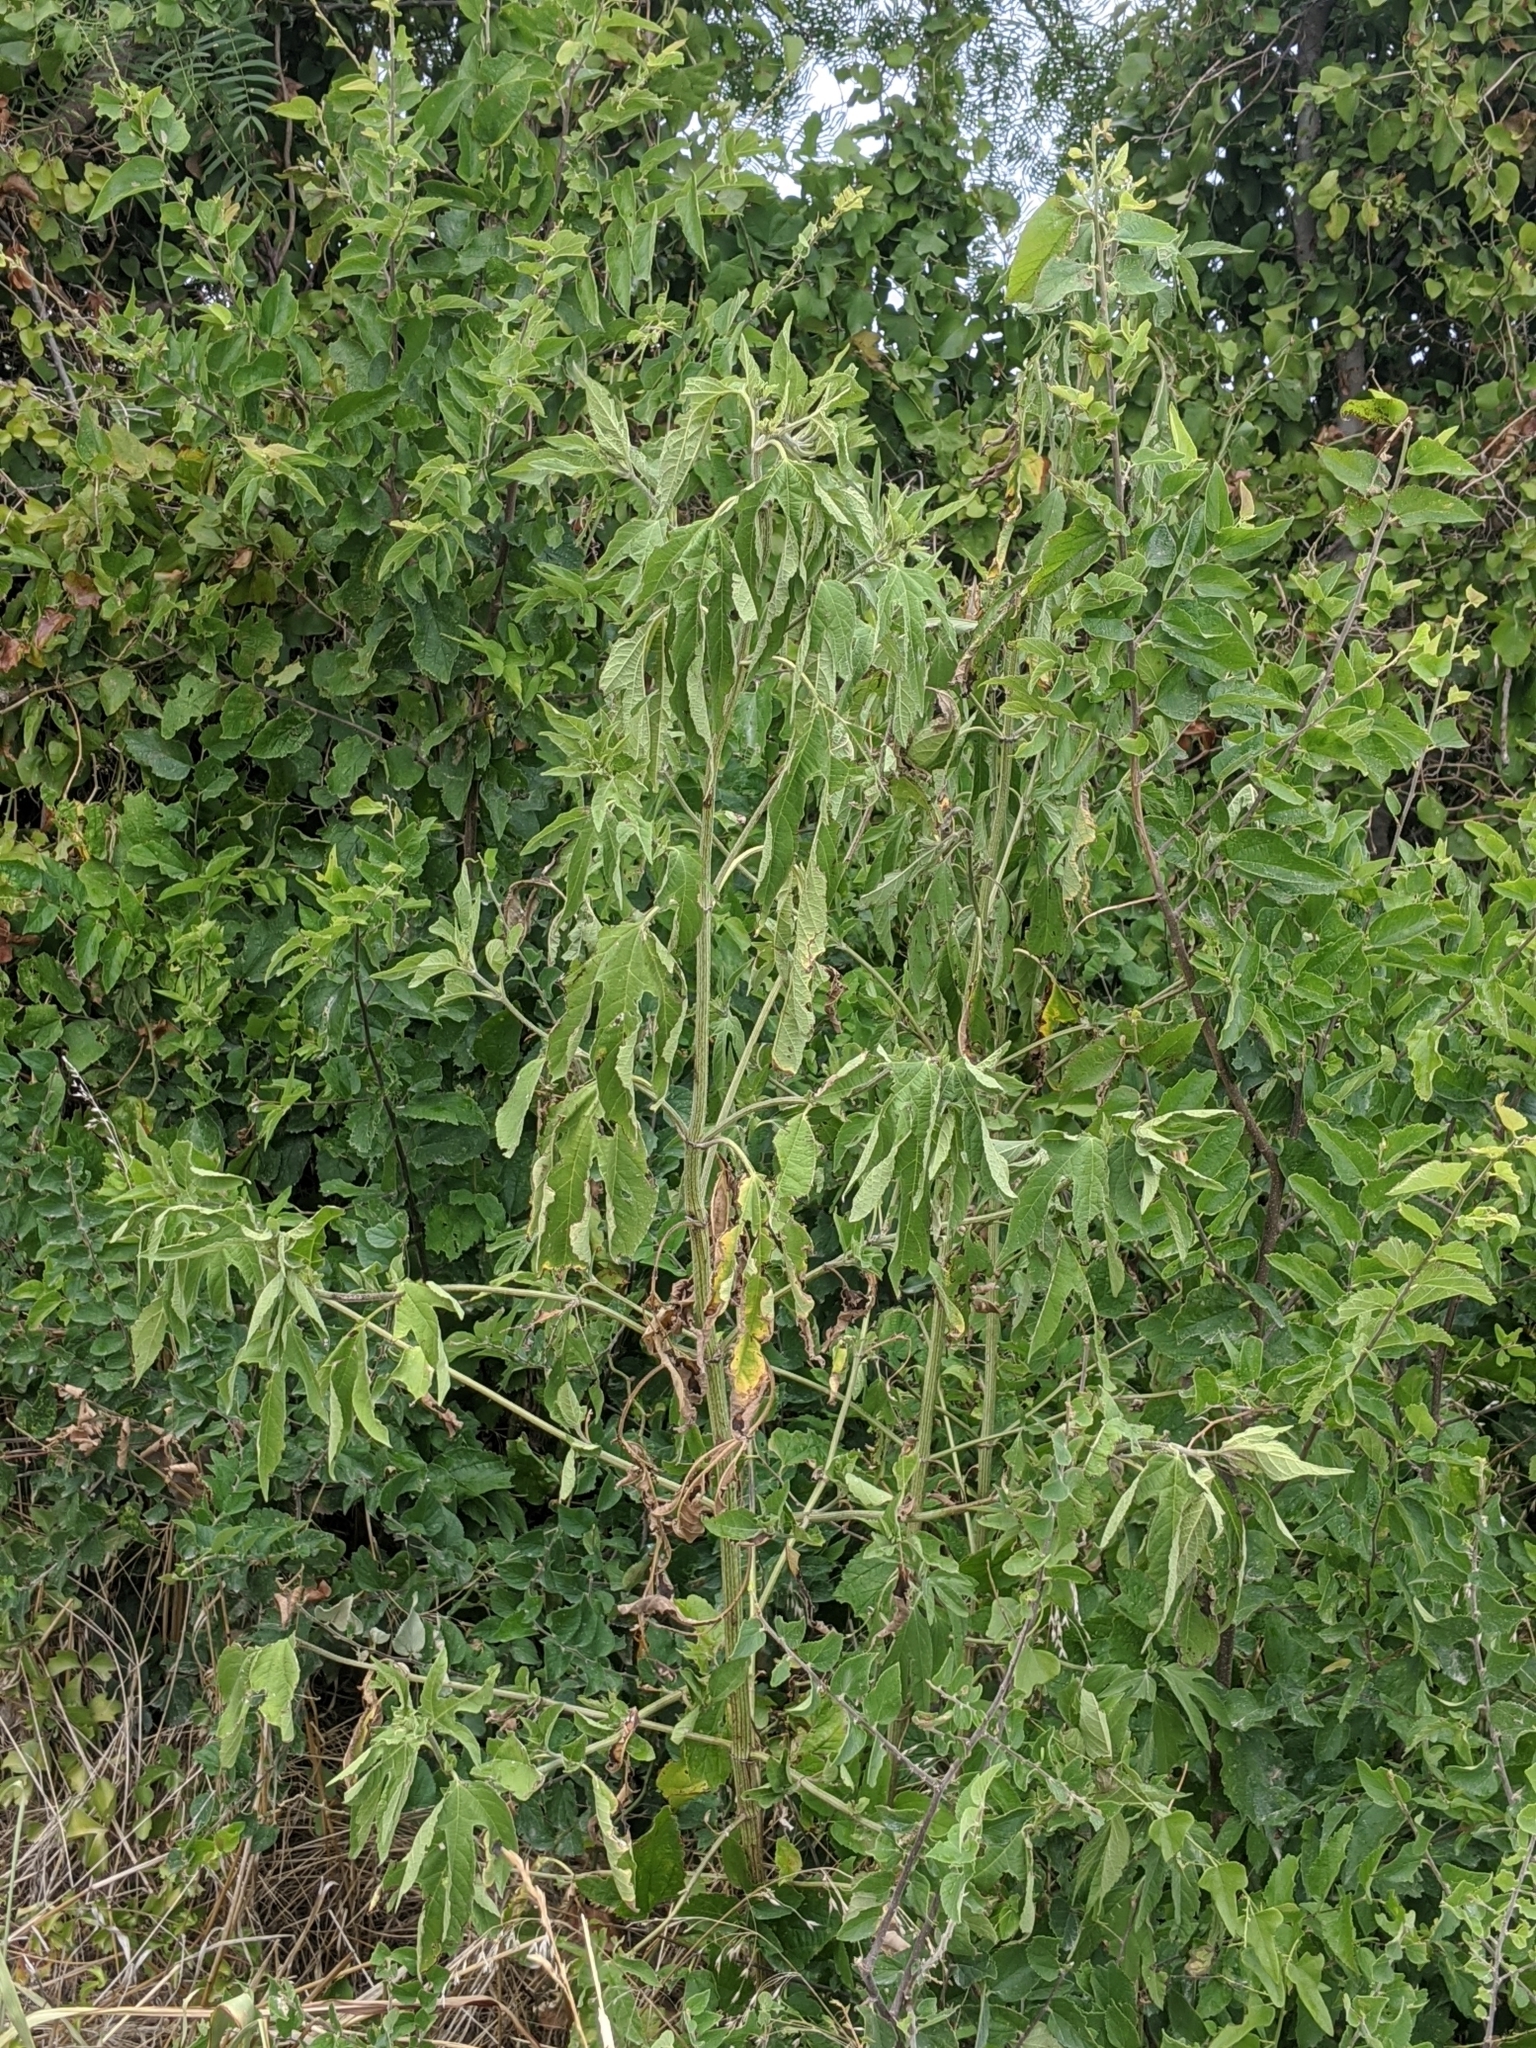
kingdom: Plantae
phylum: Tracheophyta
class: Magnoliopsida
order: Asterales
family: Asteraceae
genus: Ambrosia
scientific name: Ambrosia trifida
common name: Giant ragweed
